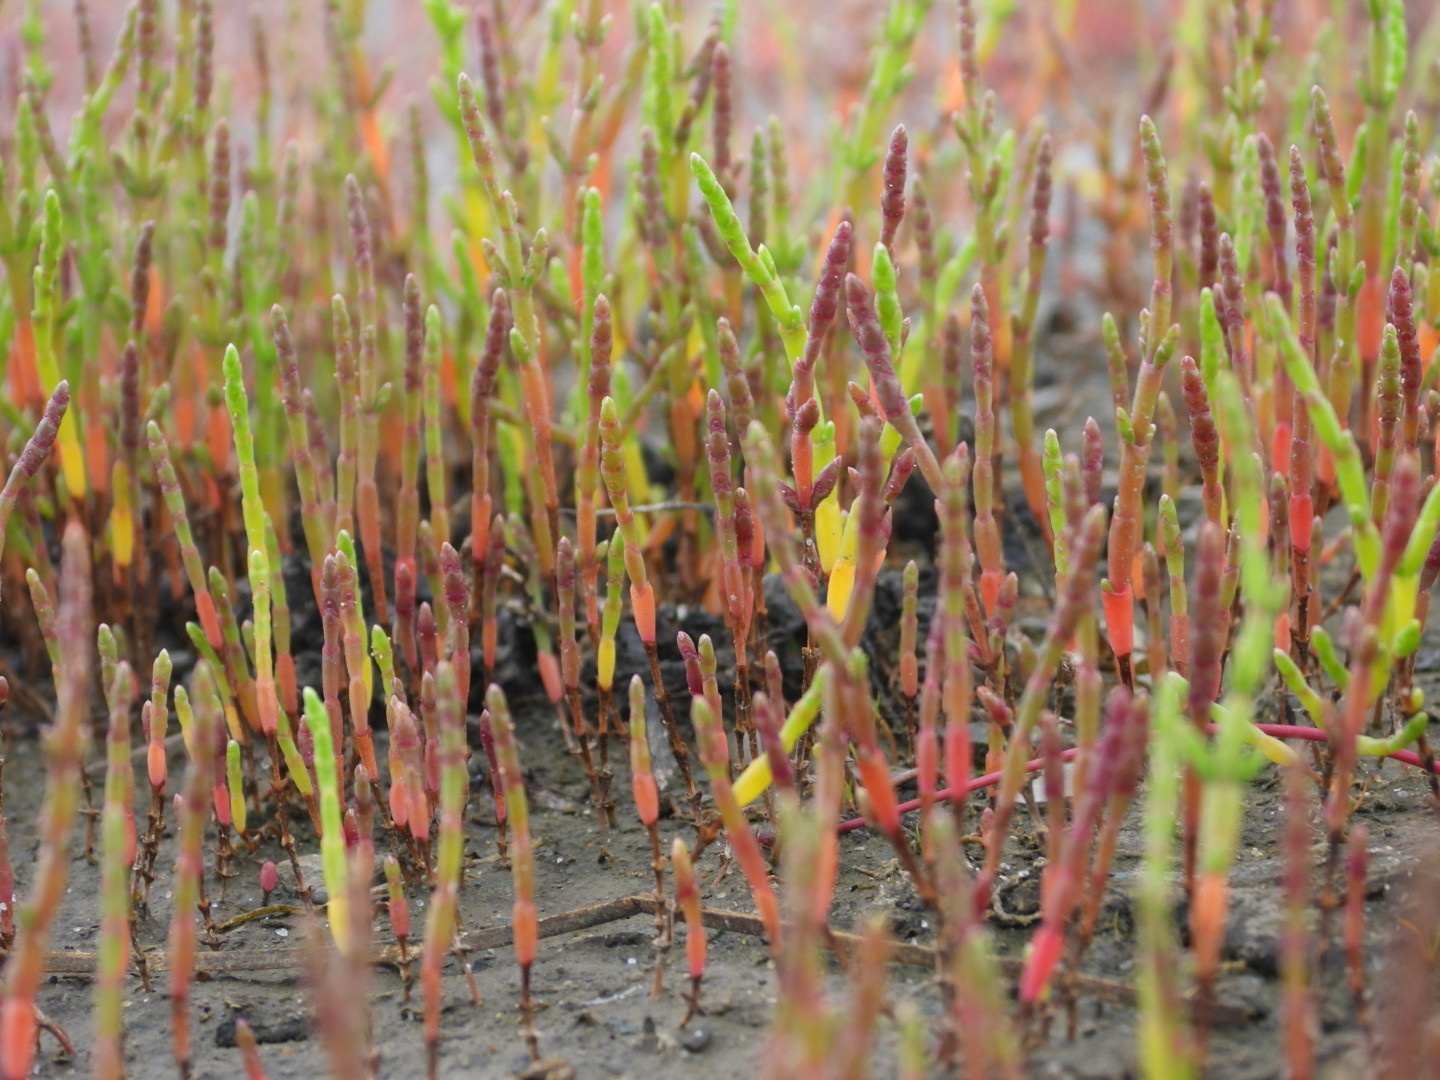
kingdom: Plantae
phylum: Tracheophyta
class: Magnoliopsida
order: Caryophyllales
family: Amaranthaceae
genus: Salicornia
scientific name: Salicornia europaea
